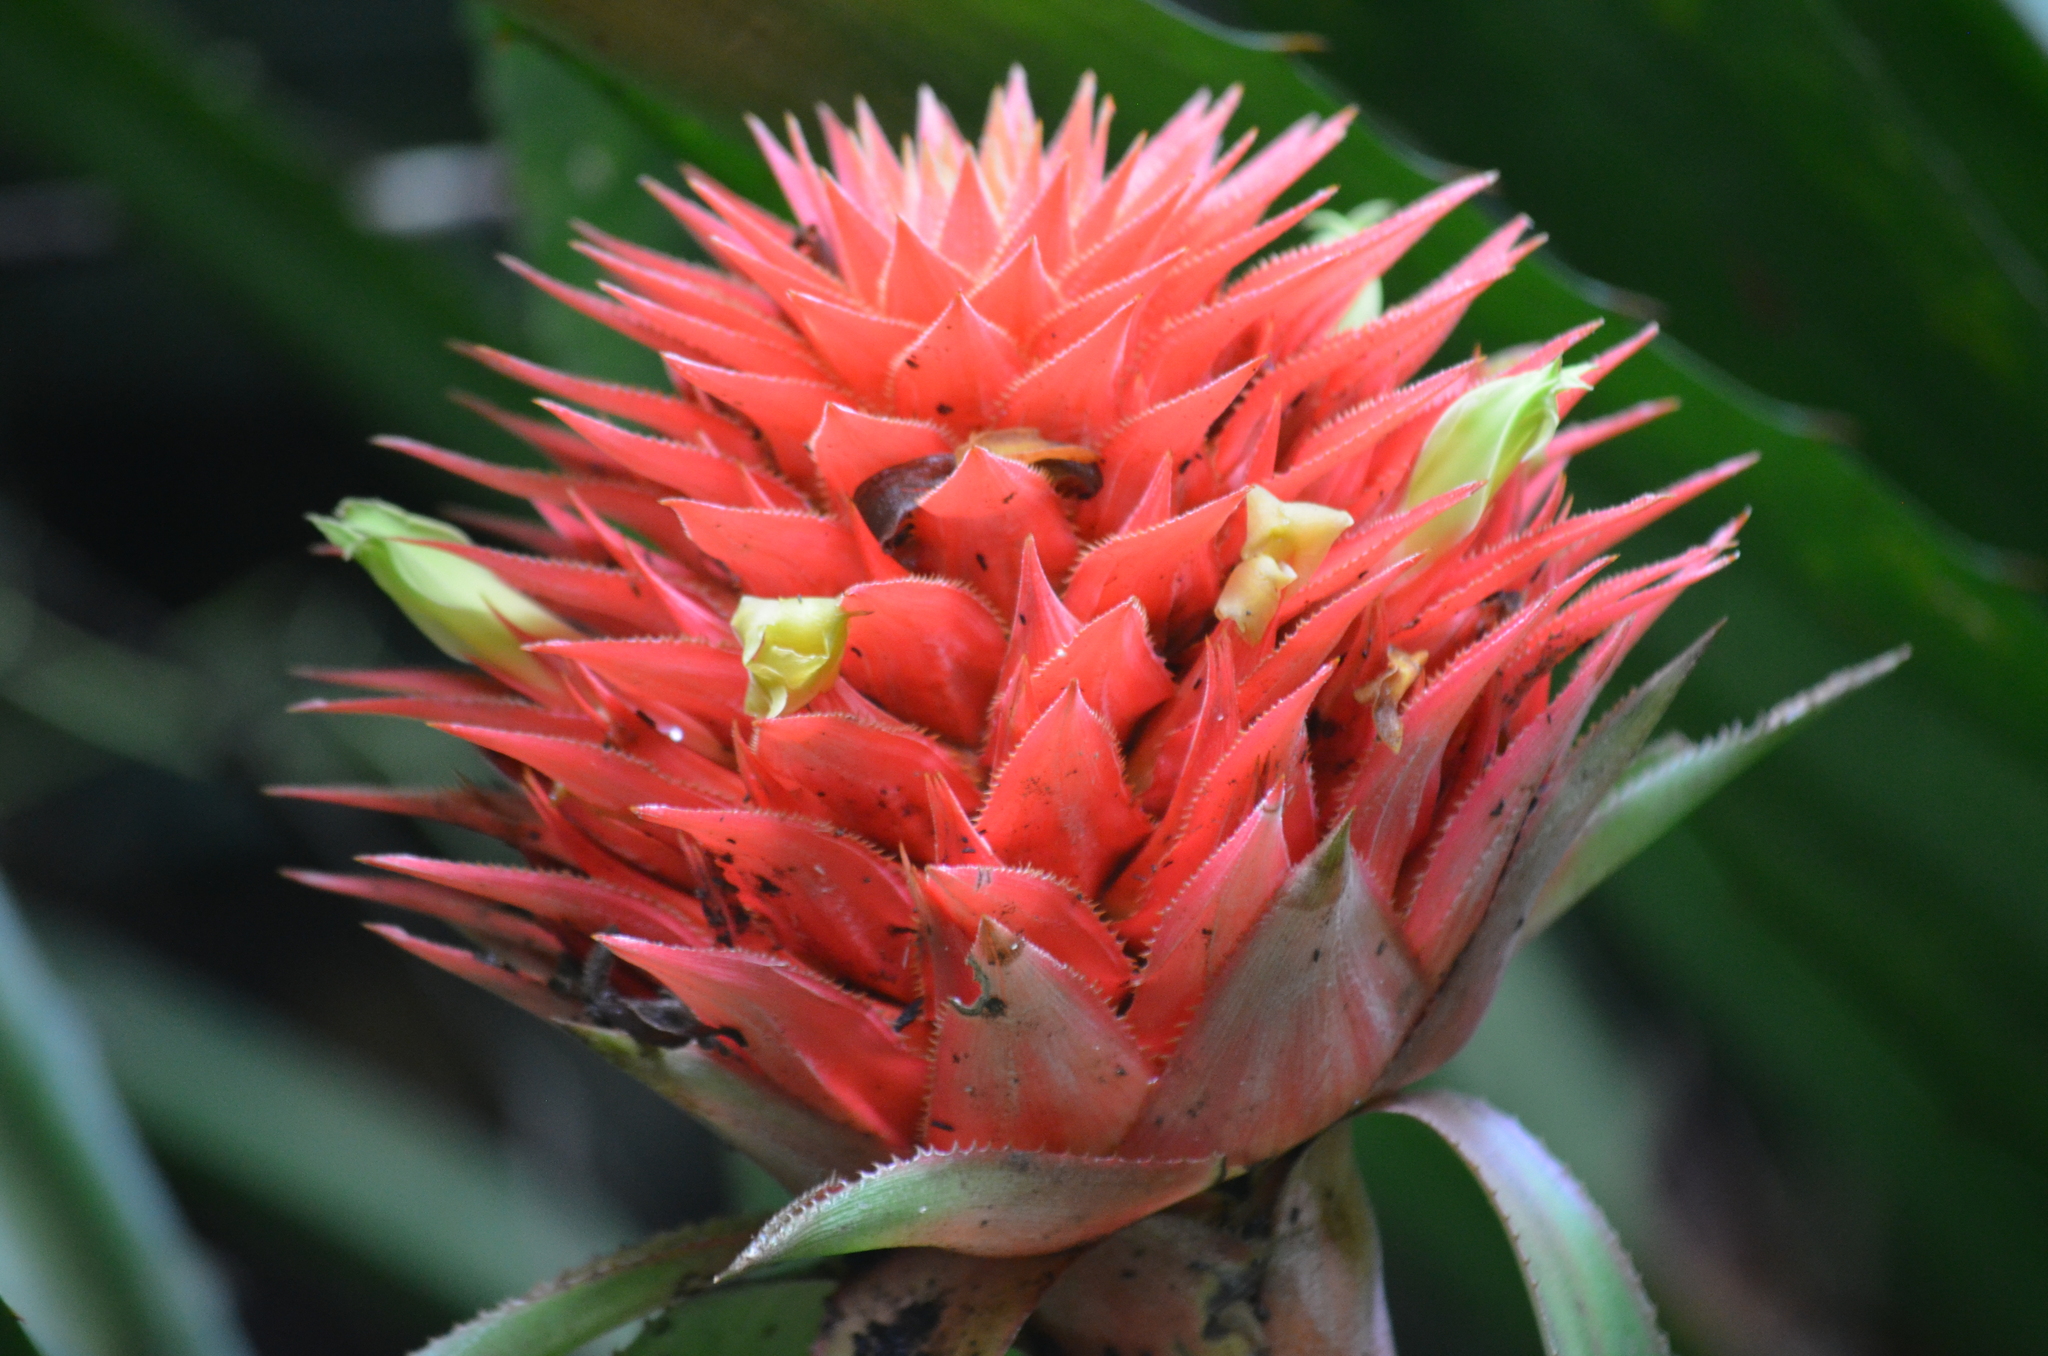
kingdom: Plantae
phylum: Tracheophyta
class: Liliopsida
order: Poales
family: Bromeliaceae
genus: Aechmea
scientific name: Aechmea magdalenae
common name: Arghan
